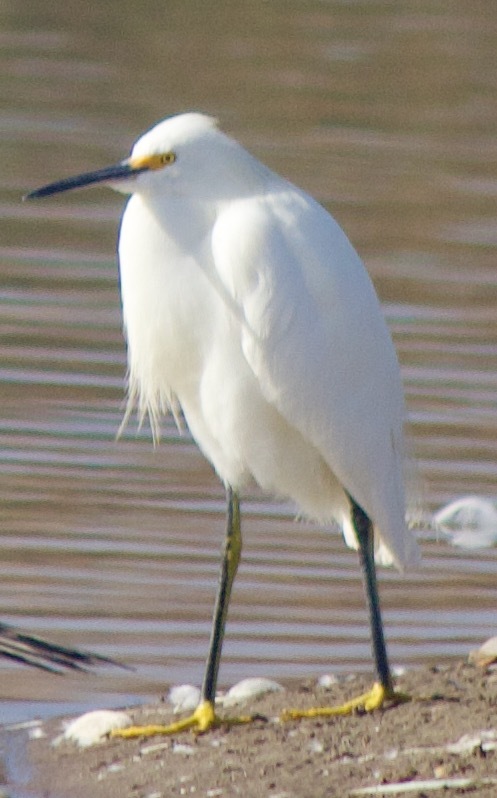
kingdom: Animalia
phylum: Chordata
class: Aves
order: Pelecaniformes
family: Ardeidae
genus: Egretta
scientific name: Egretta thula
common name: Snowy egret
